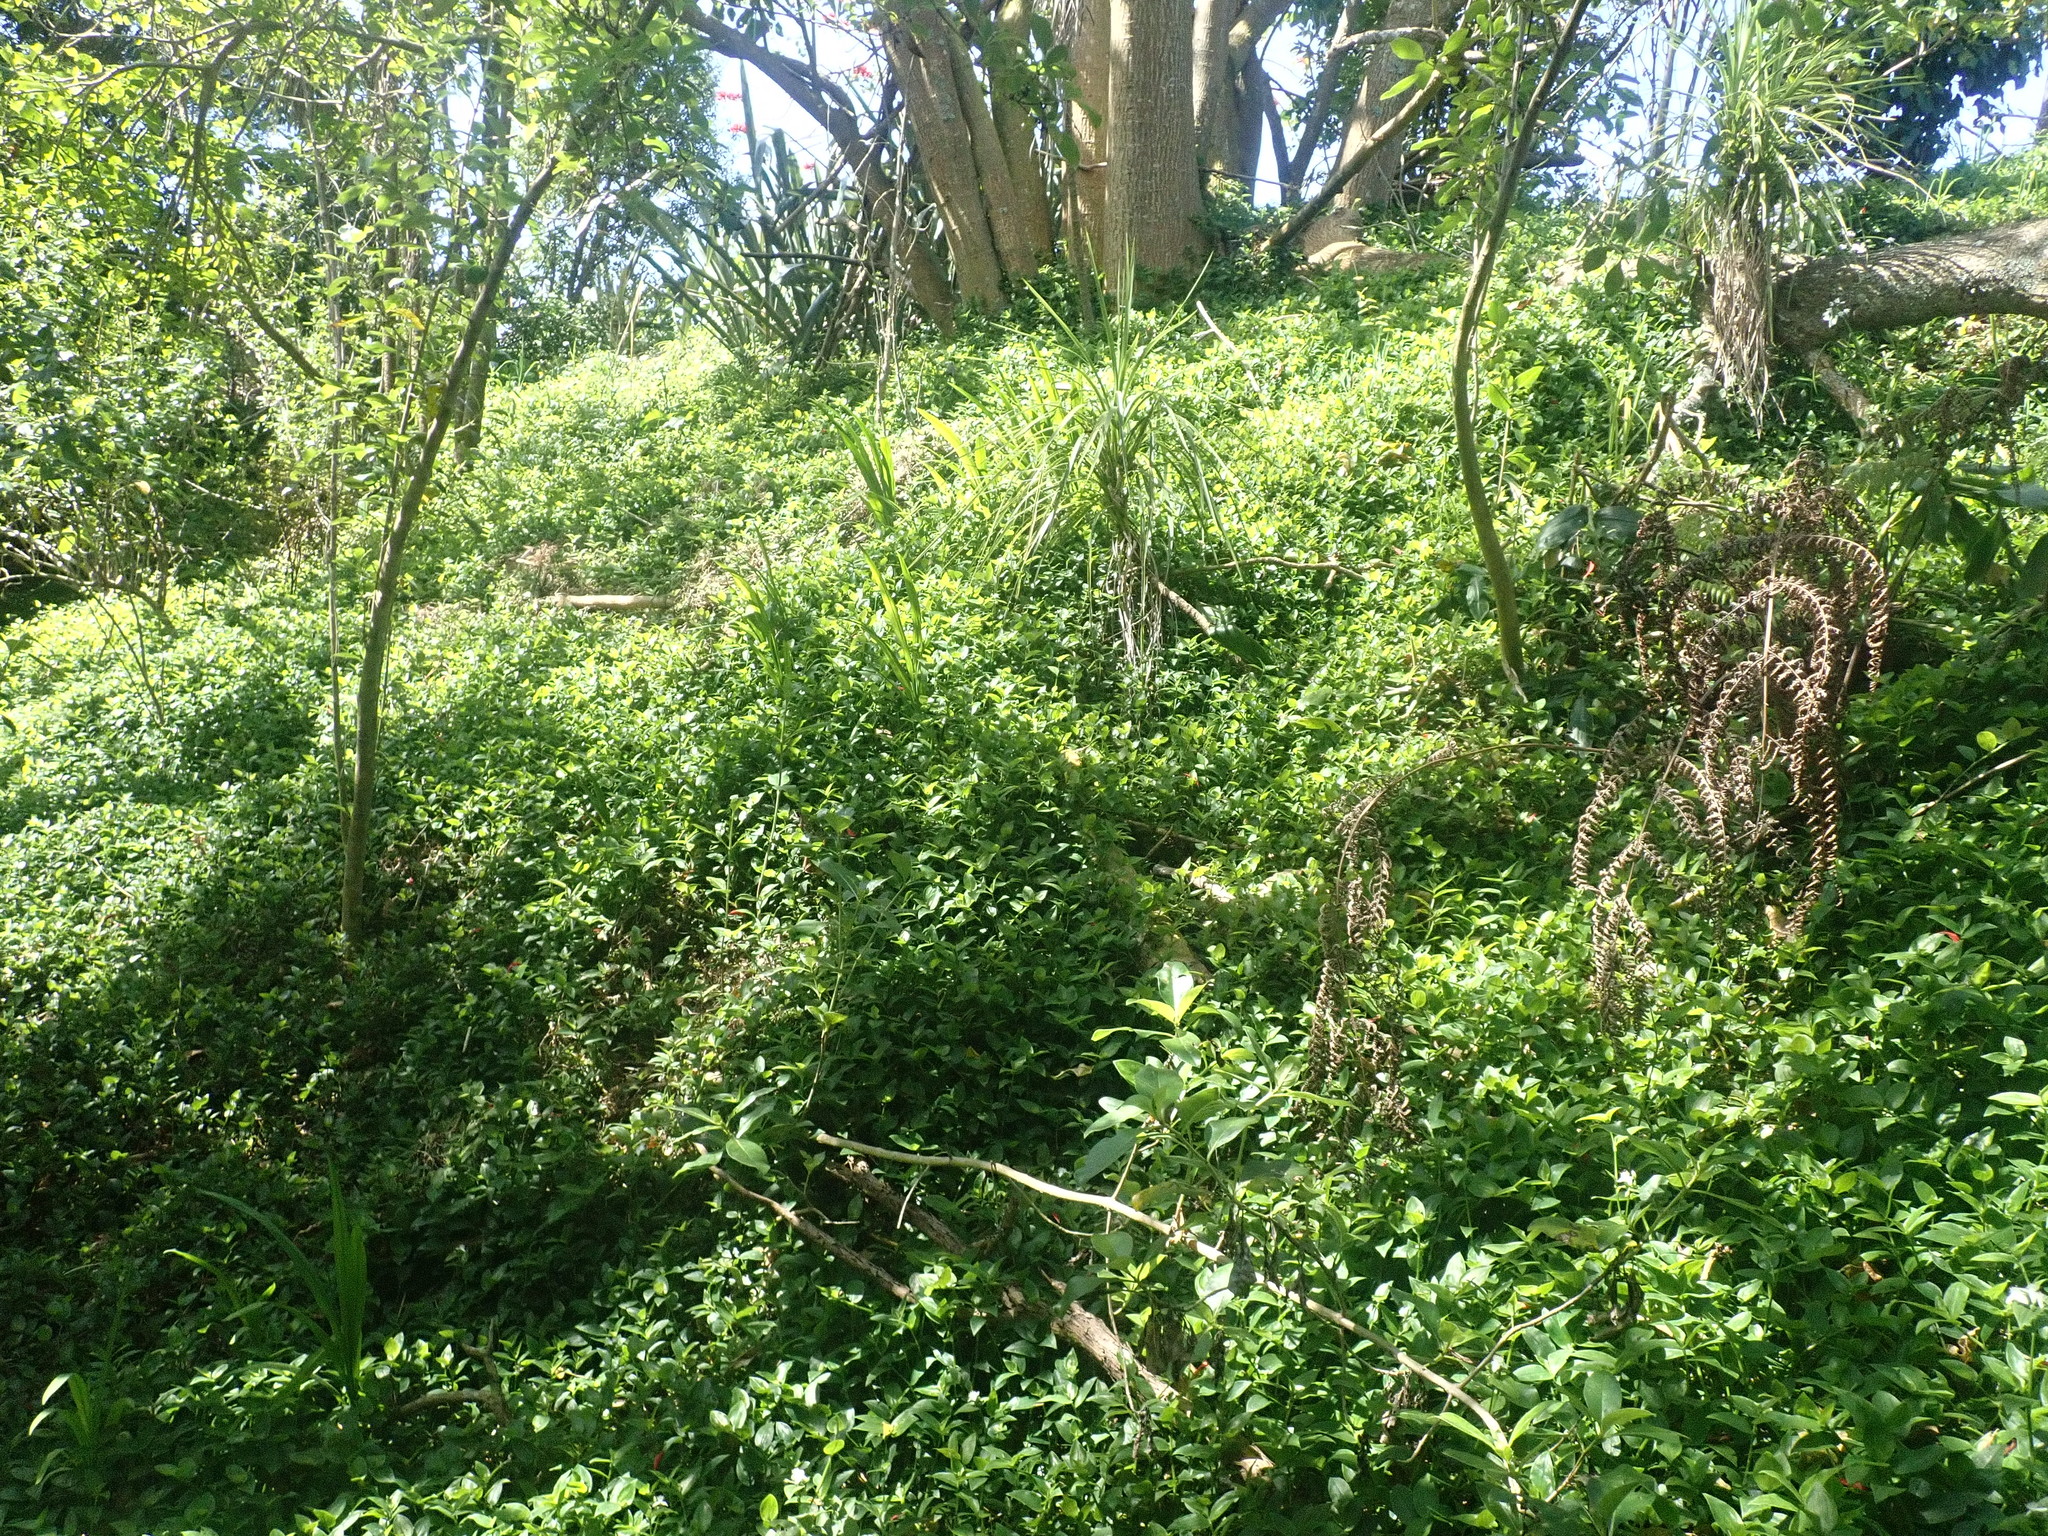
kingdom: Plantae
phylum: Tracheophyta
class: Magnoliopsida
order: Gentianales
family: Rubiaceae
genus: Coprosma
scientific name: Coprosma robusta
